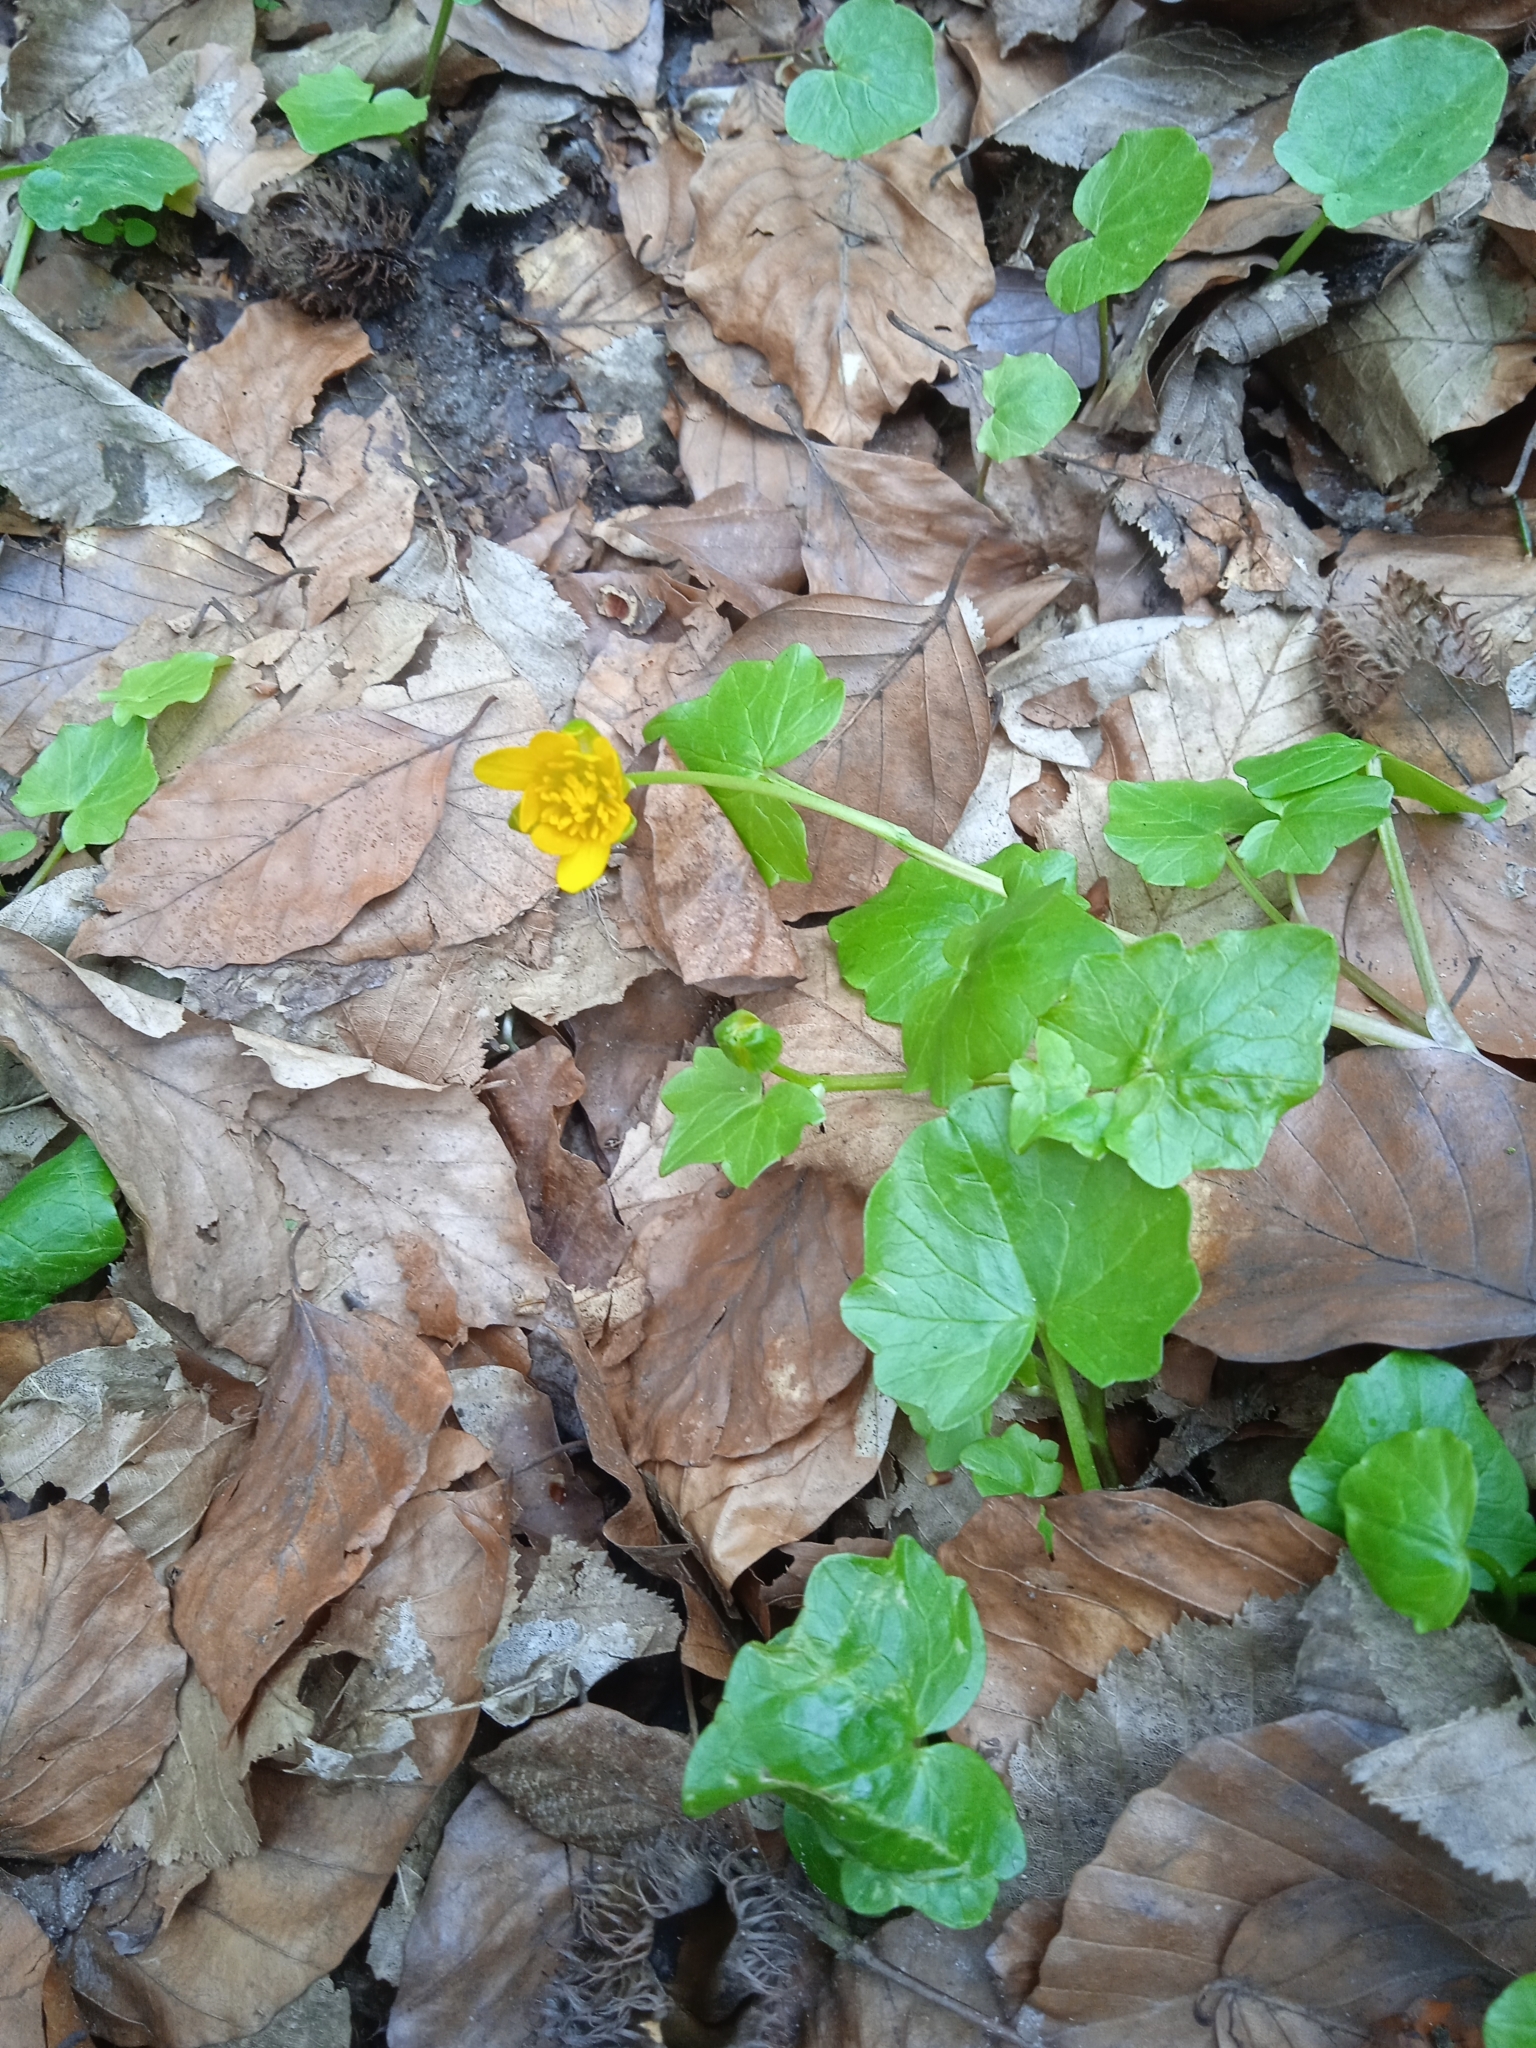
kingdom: Plantae
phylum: Tracheophyta
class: Magnoliopsida
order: Ranunculales
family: Ranunculaceae
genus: Ficaria
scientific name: Ficaria verna
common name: Lesser celandine
